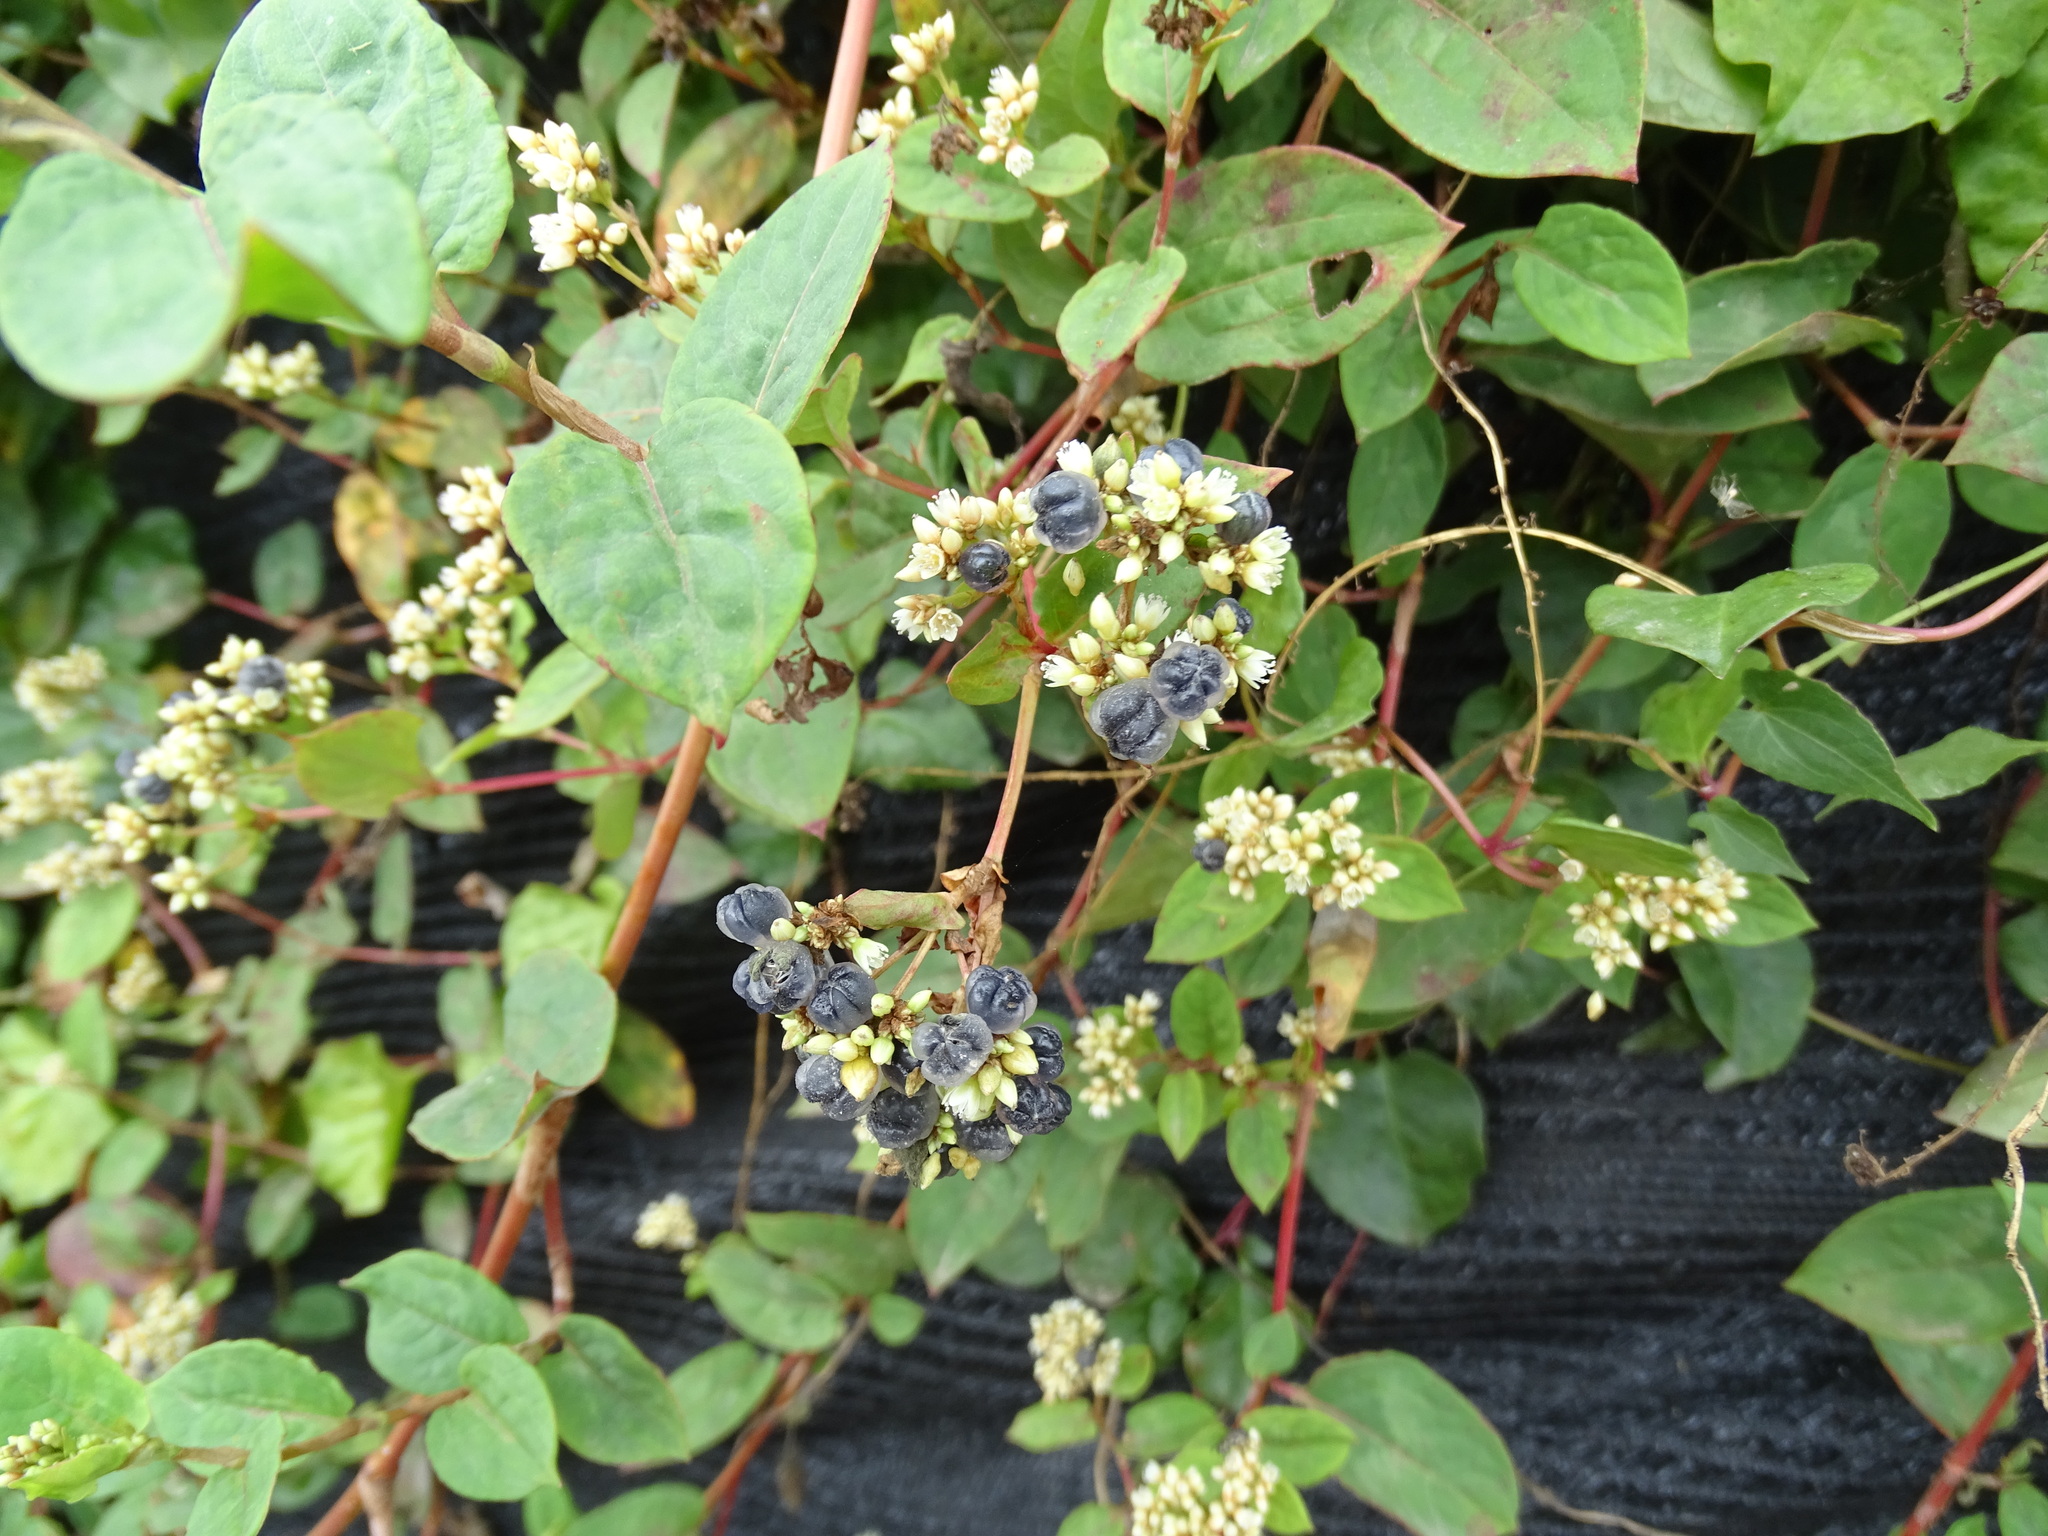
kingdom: Plantae
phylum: Tracheophyta
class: Magnoliopsida
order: Caryophyllales
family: Polygonaceae
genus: Persicaria
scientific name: Persicaria chinensis
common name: Chinese knotweed
